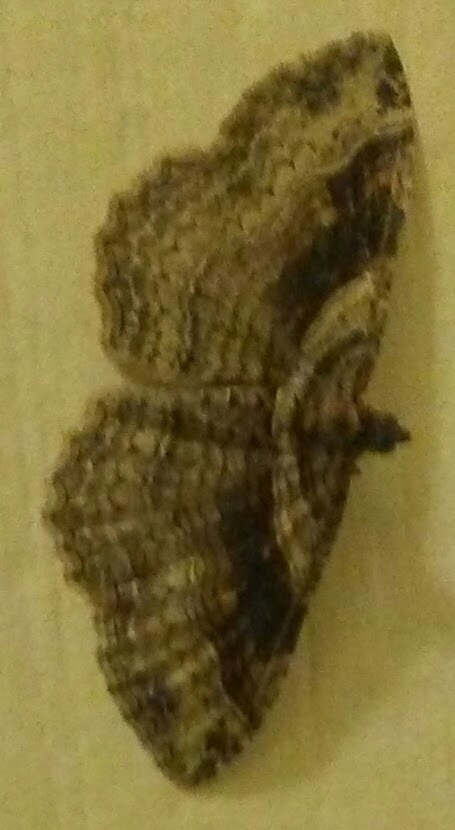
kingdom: Animalia
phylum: Arthropoda
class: Insecta
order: Lepidoptera
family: Geometridae
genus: Costaconvexa
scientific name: Costaconvexa centrostrigaria
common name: Bent-line carpet
